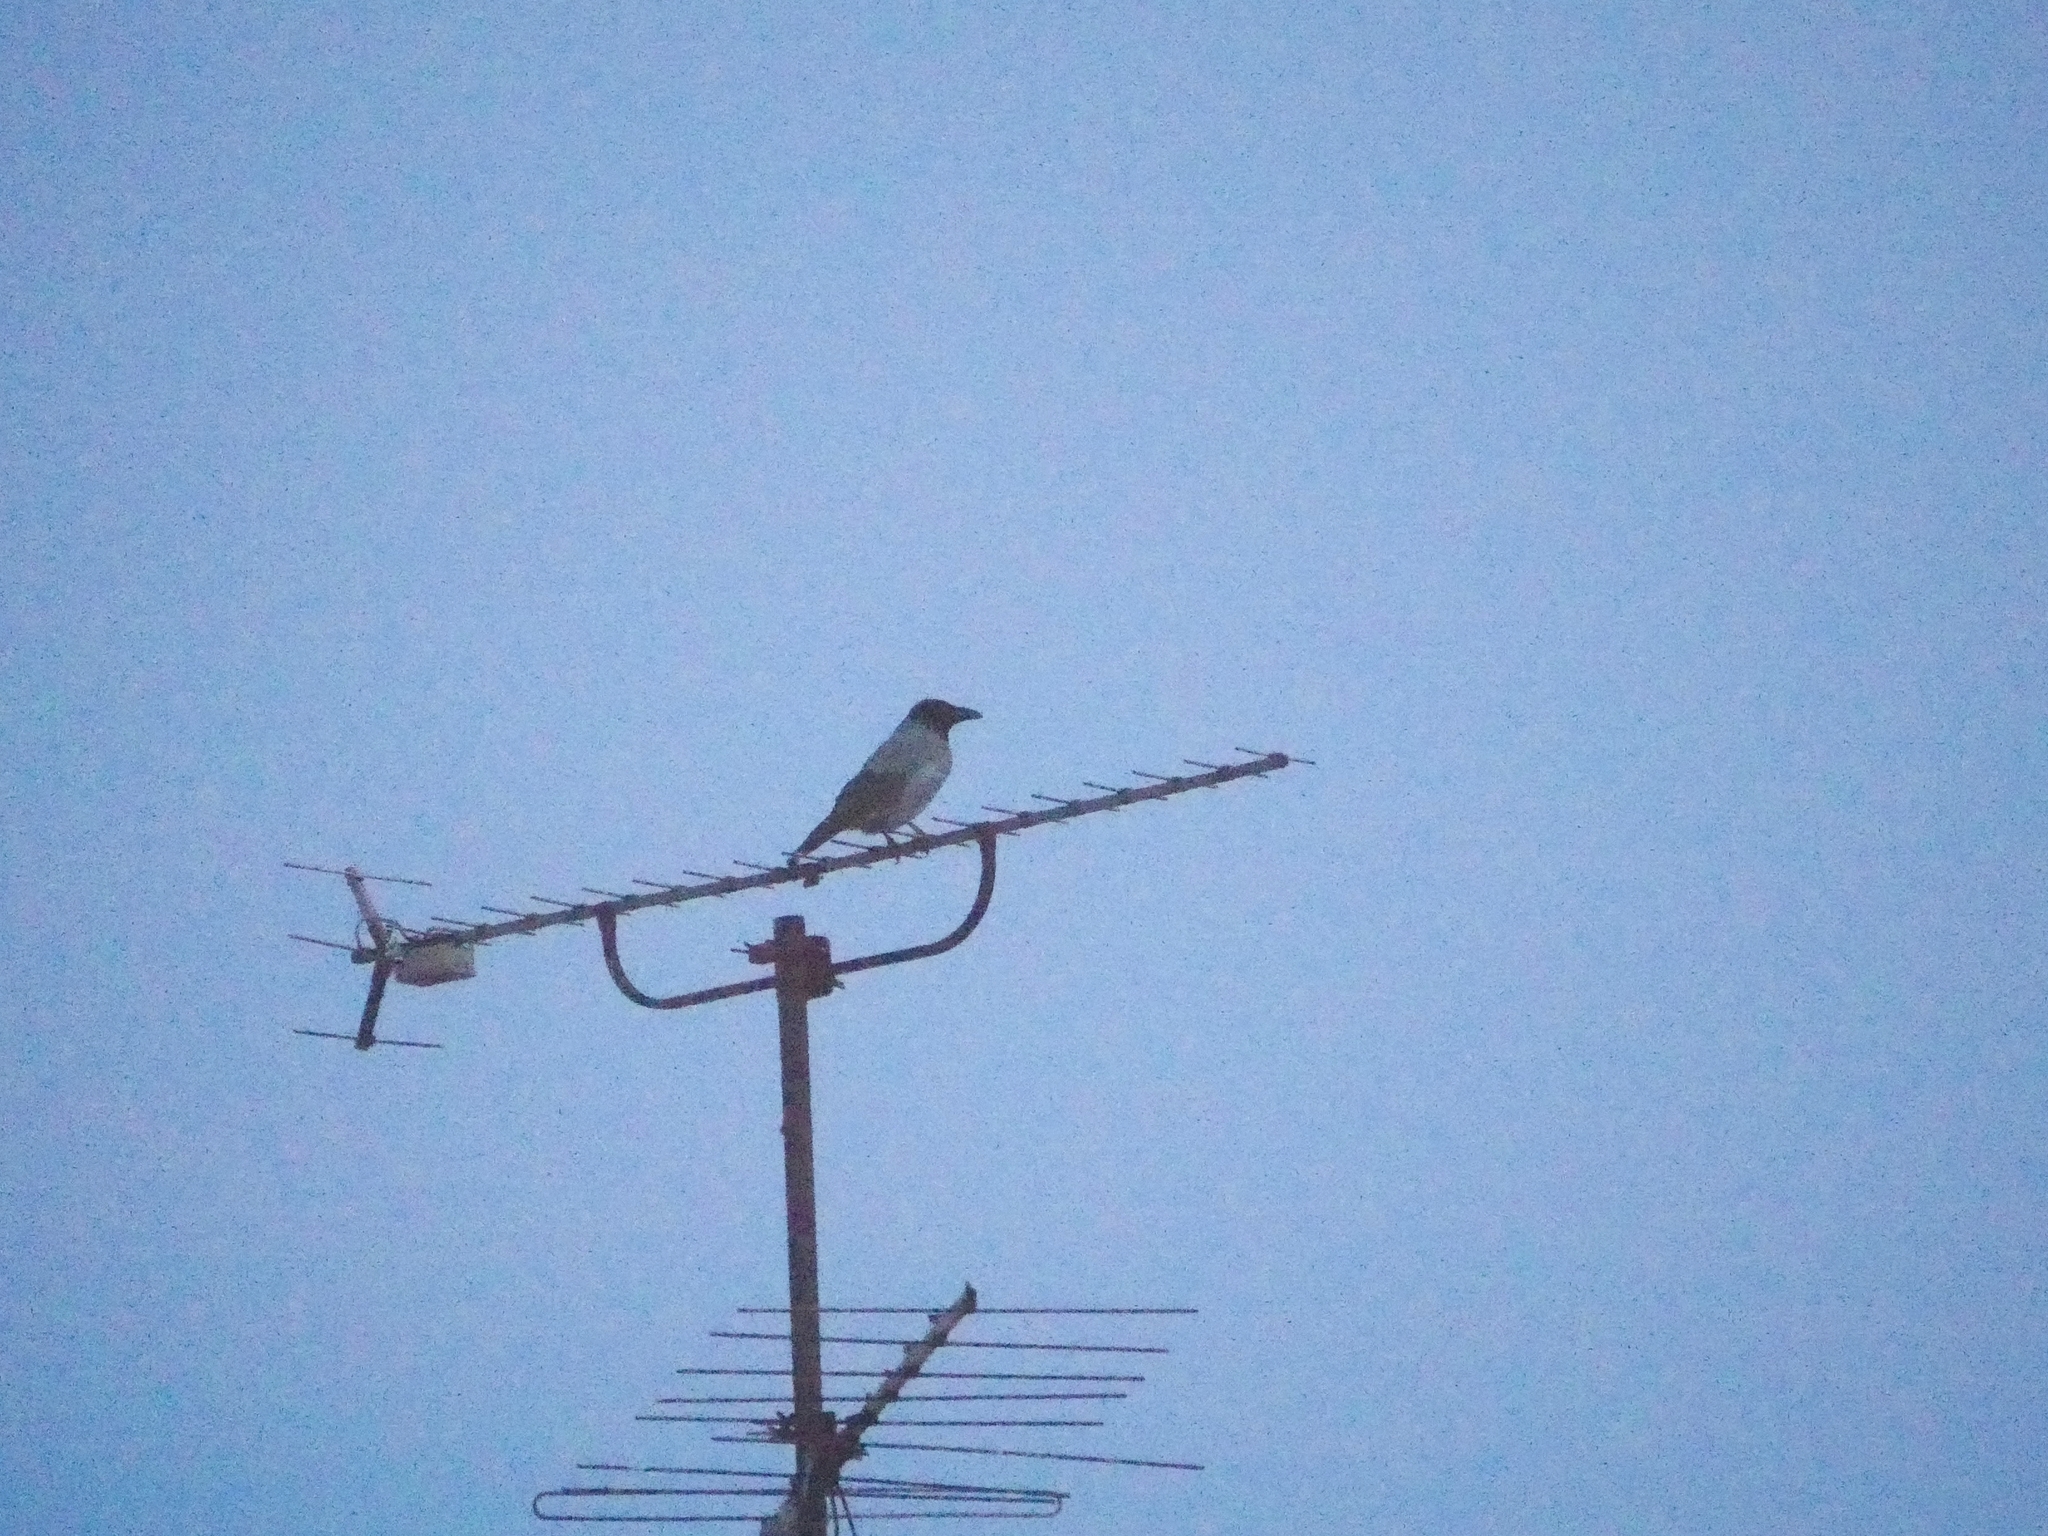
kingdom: Animalia
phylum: Chordata
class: Aves
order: Passeriformes
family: Corvidae
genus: Corvus
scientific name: Corvus cornix
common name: Hooded crow
